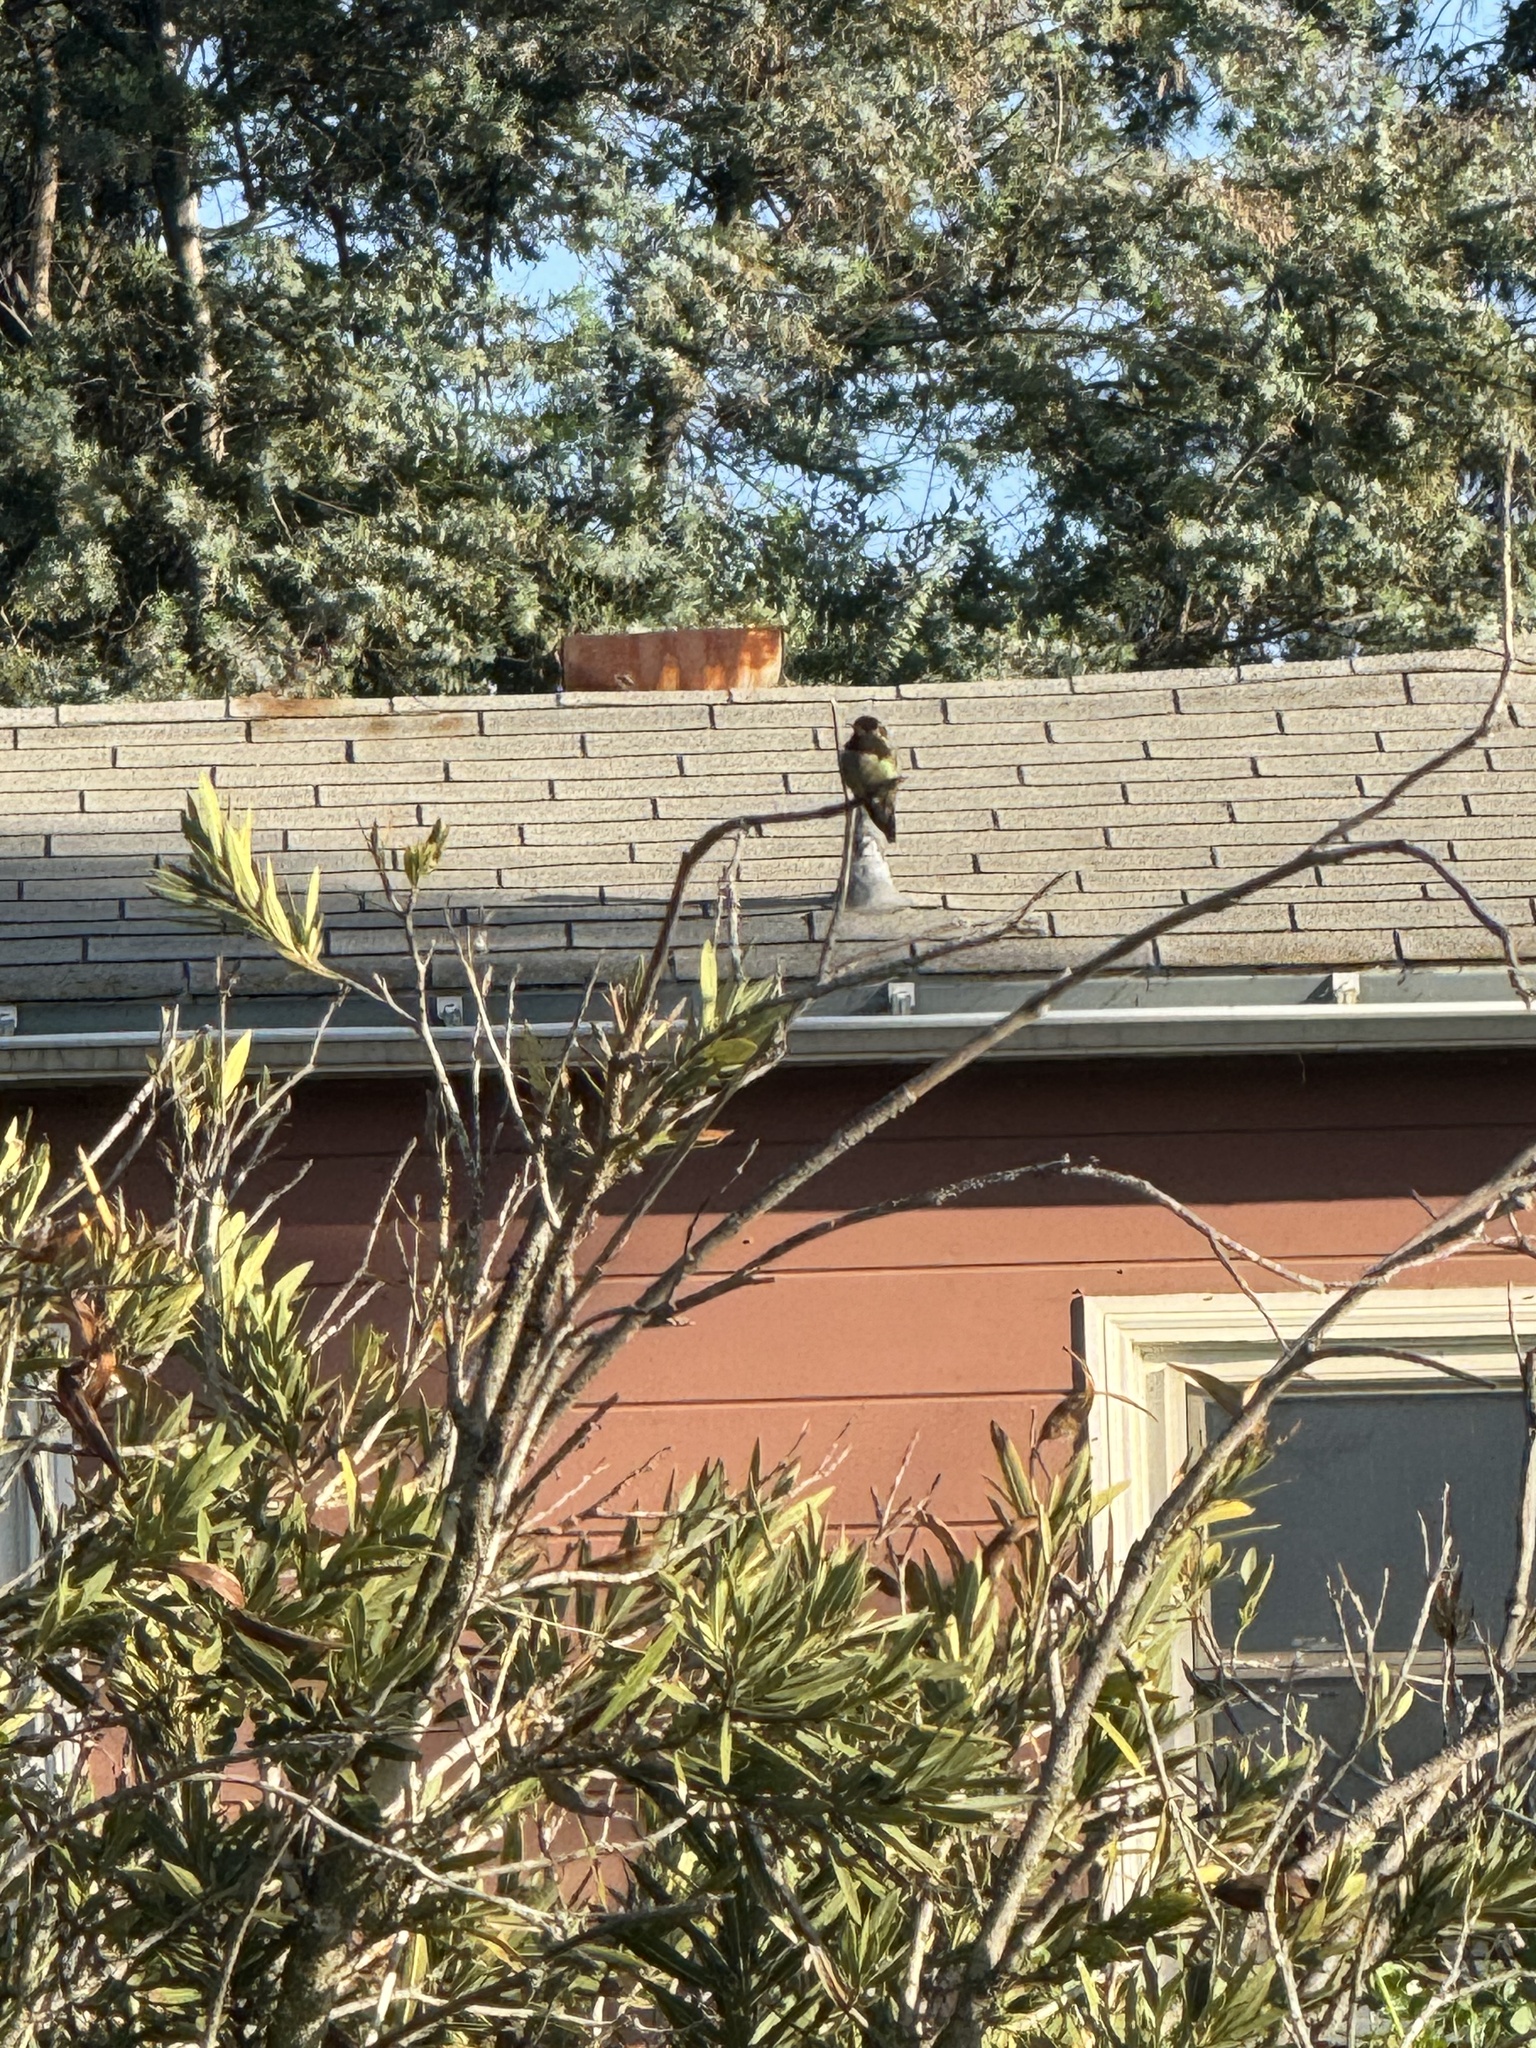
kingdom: Animalia
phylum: Chordata
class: Aves
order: Apodiformes
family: Trochilidae
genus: Calypte
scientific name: Calypte anna
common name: Anna's hummingbird
